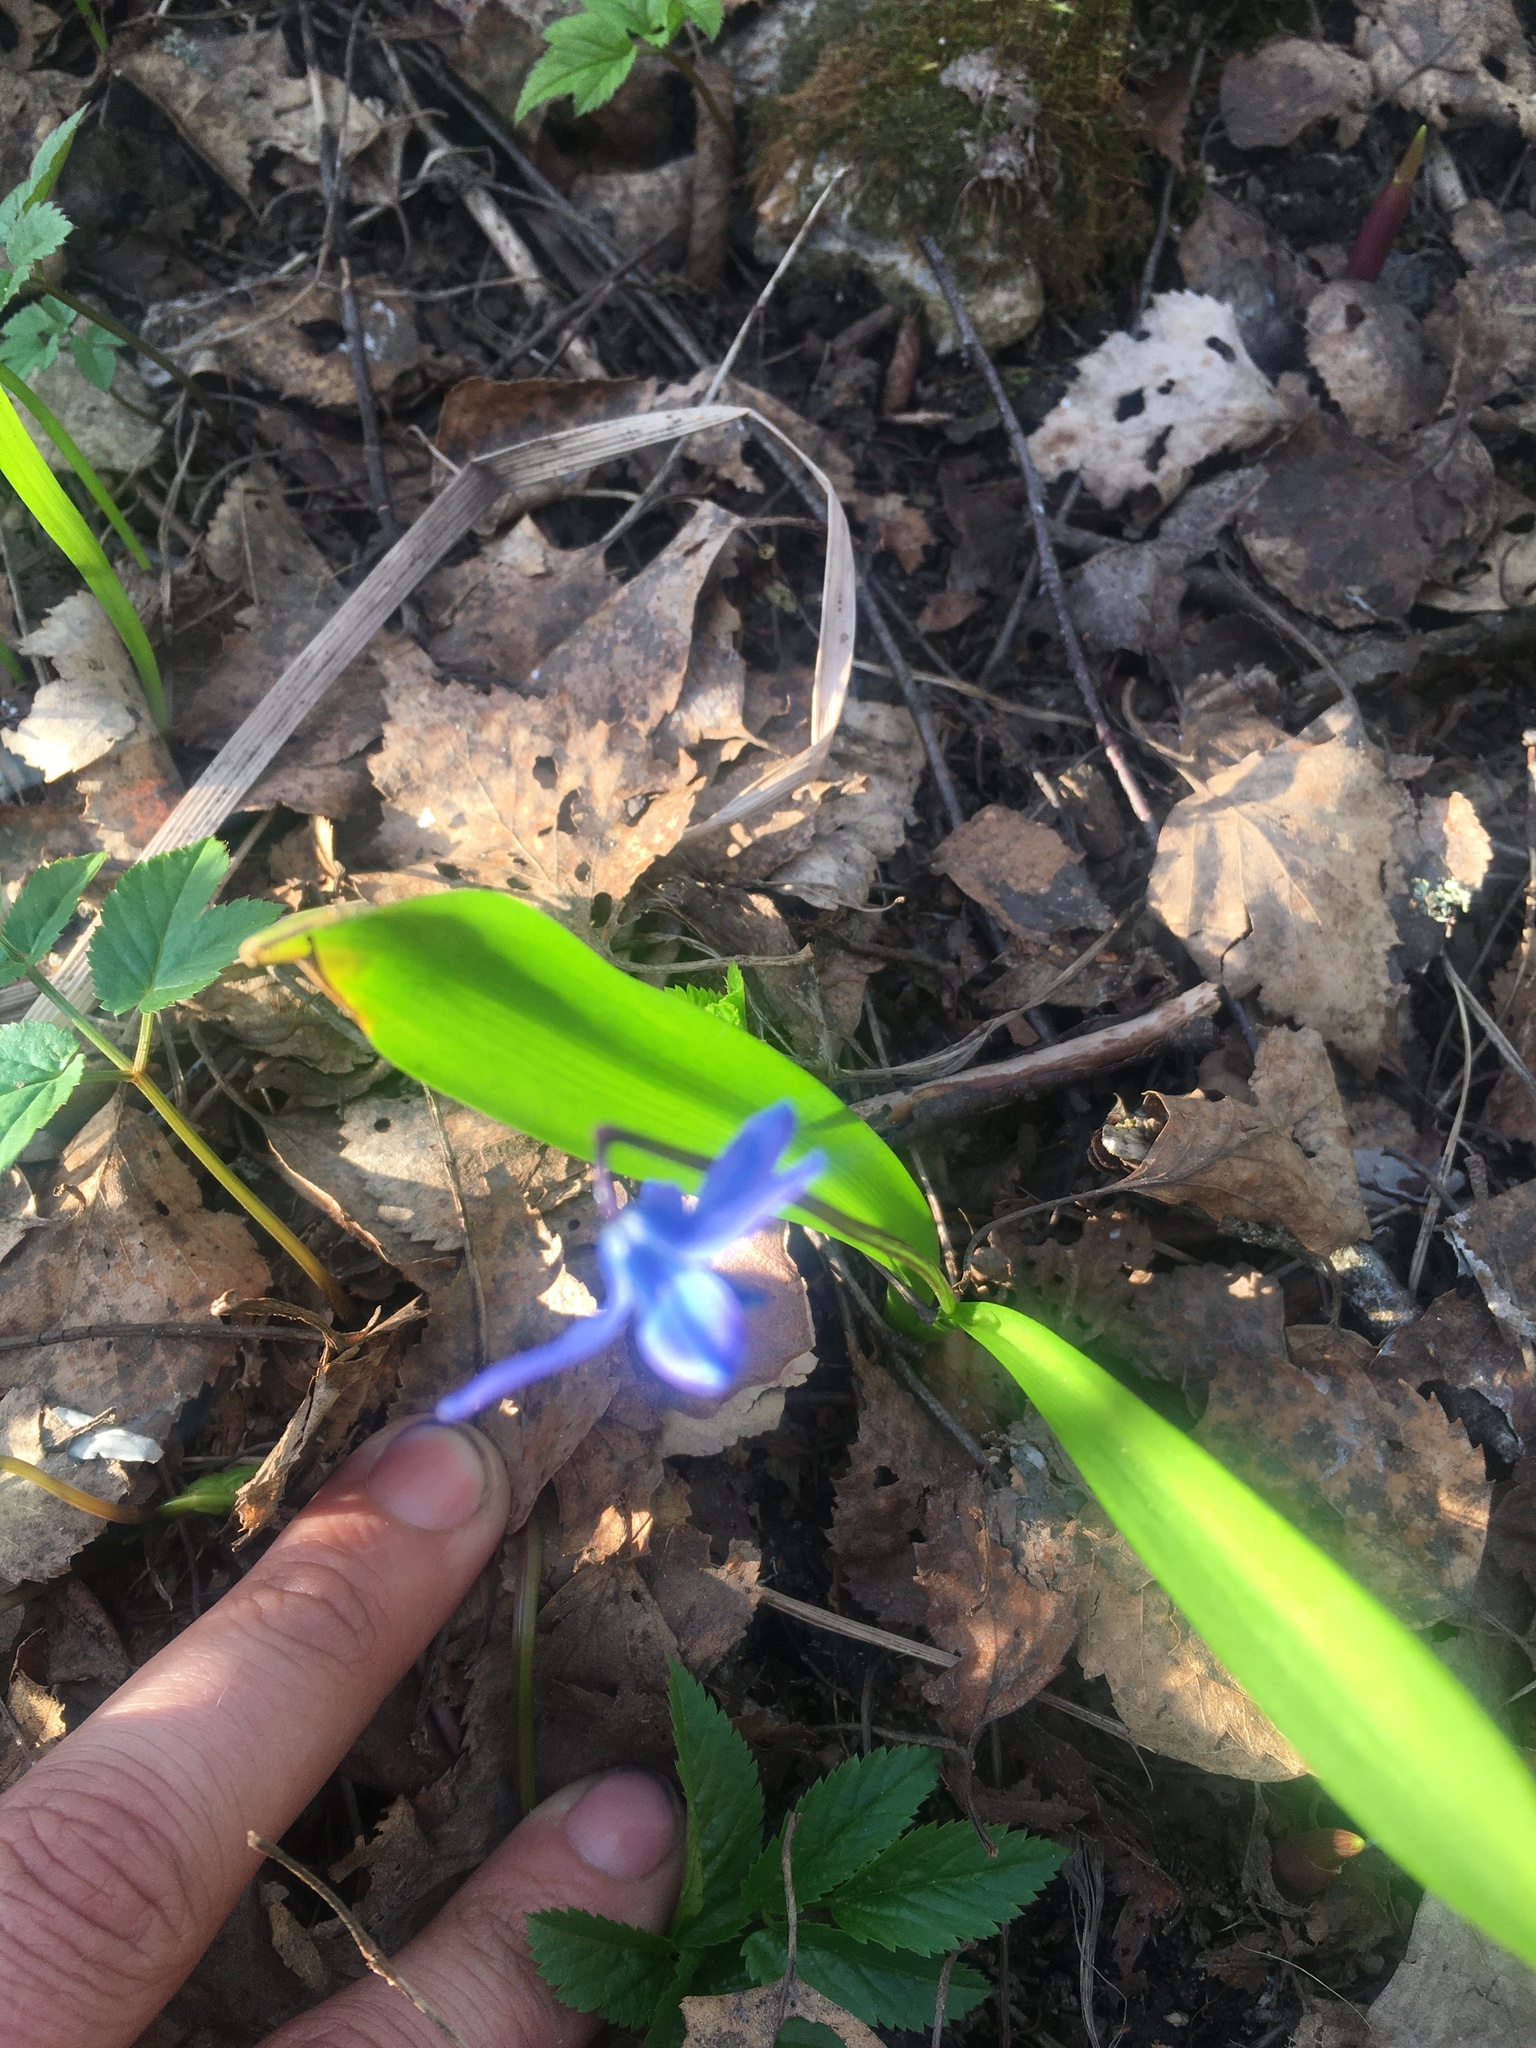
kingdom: Plantae
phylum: Tracheophyta
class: Liliopsida
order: Asparagales
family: Asparagaceae
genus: Scilla
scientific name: Scilla siberica
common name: Siberian squill
